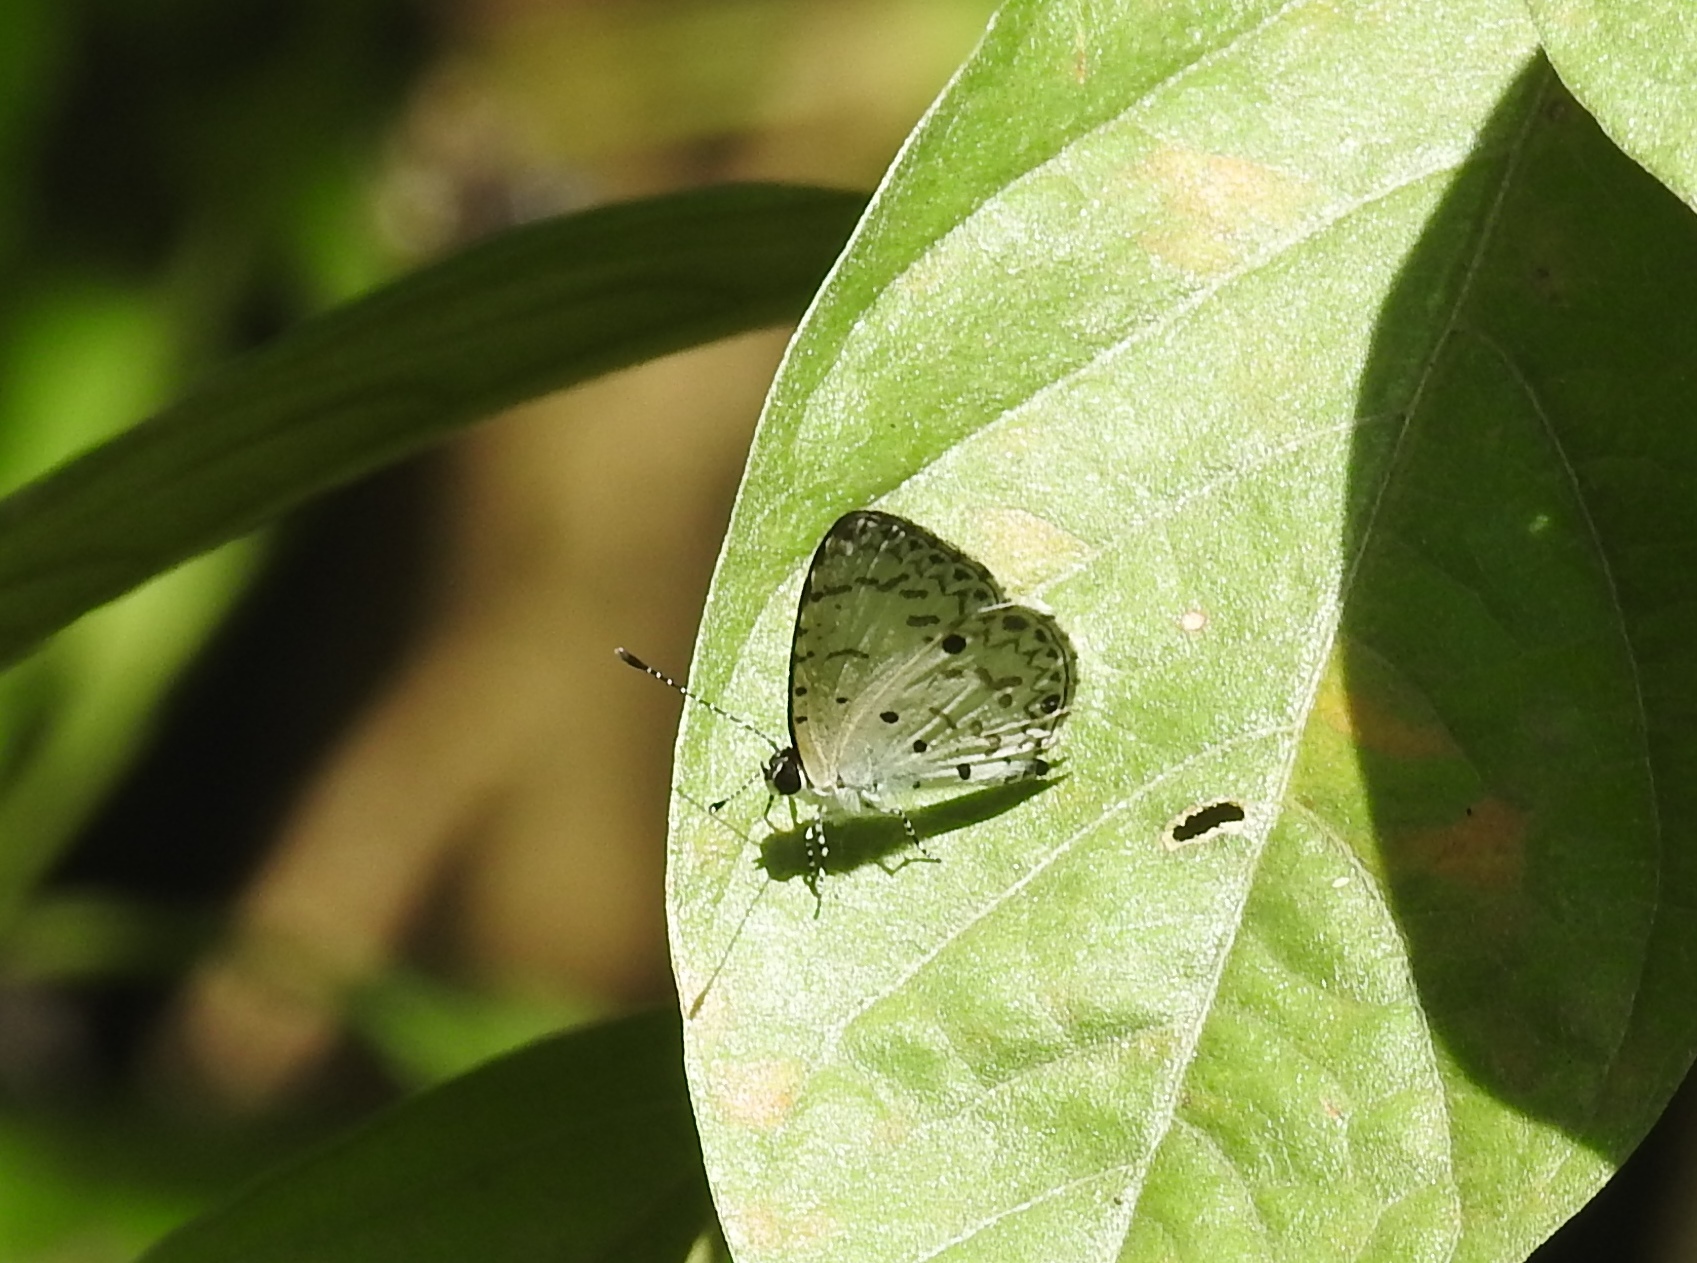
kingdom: Animalia
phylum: Arthropoda
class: Insecta
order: Lepidoptera
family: Lycaenidae
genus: Acytolepis
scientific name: Acytolepis puspa
